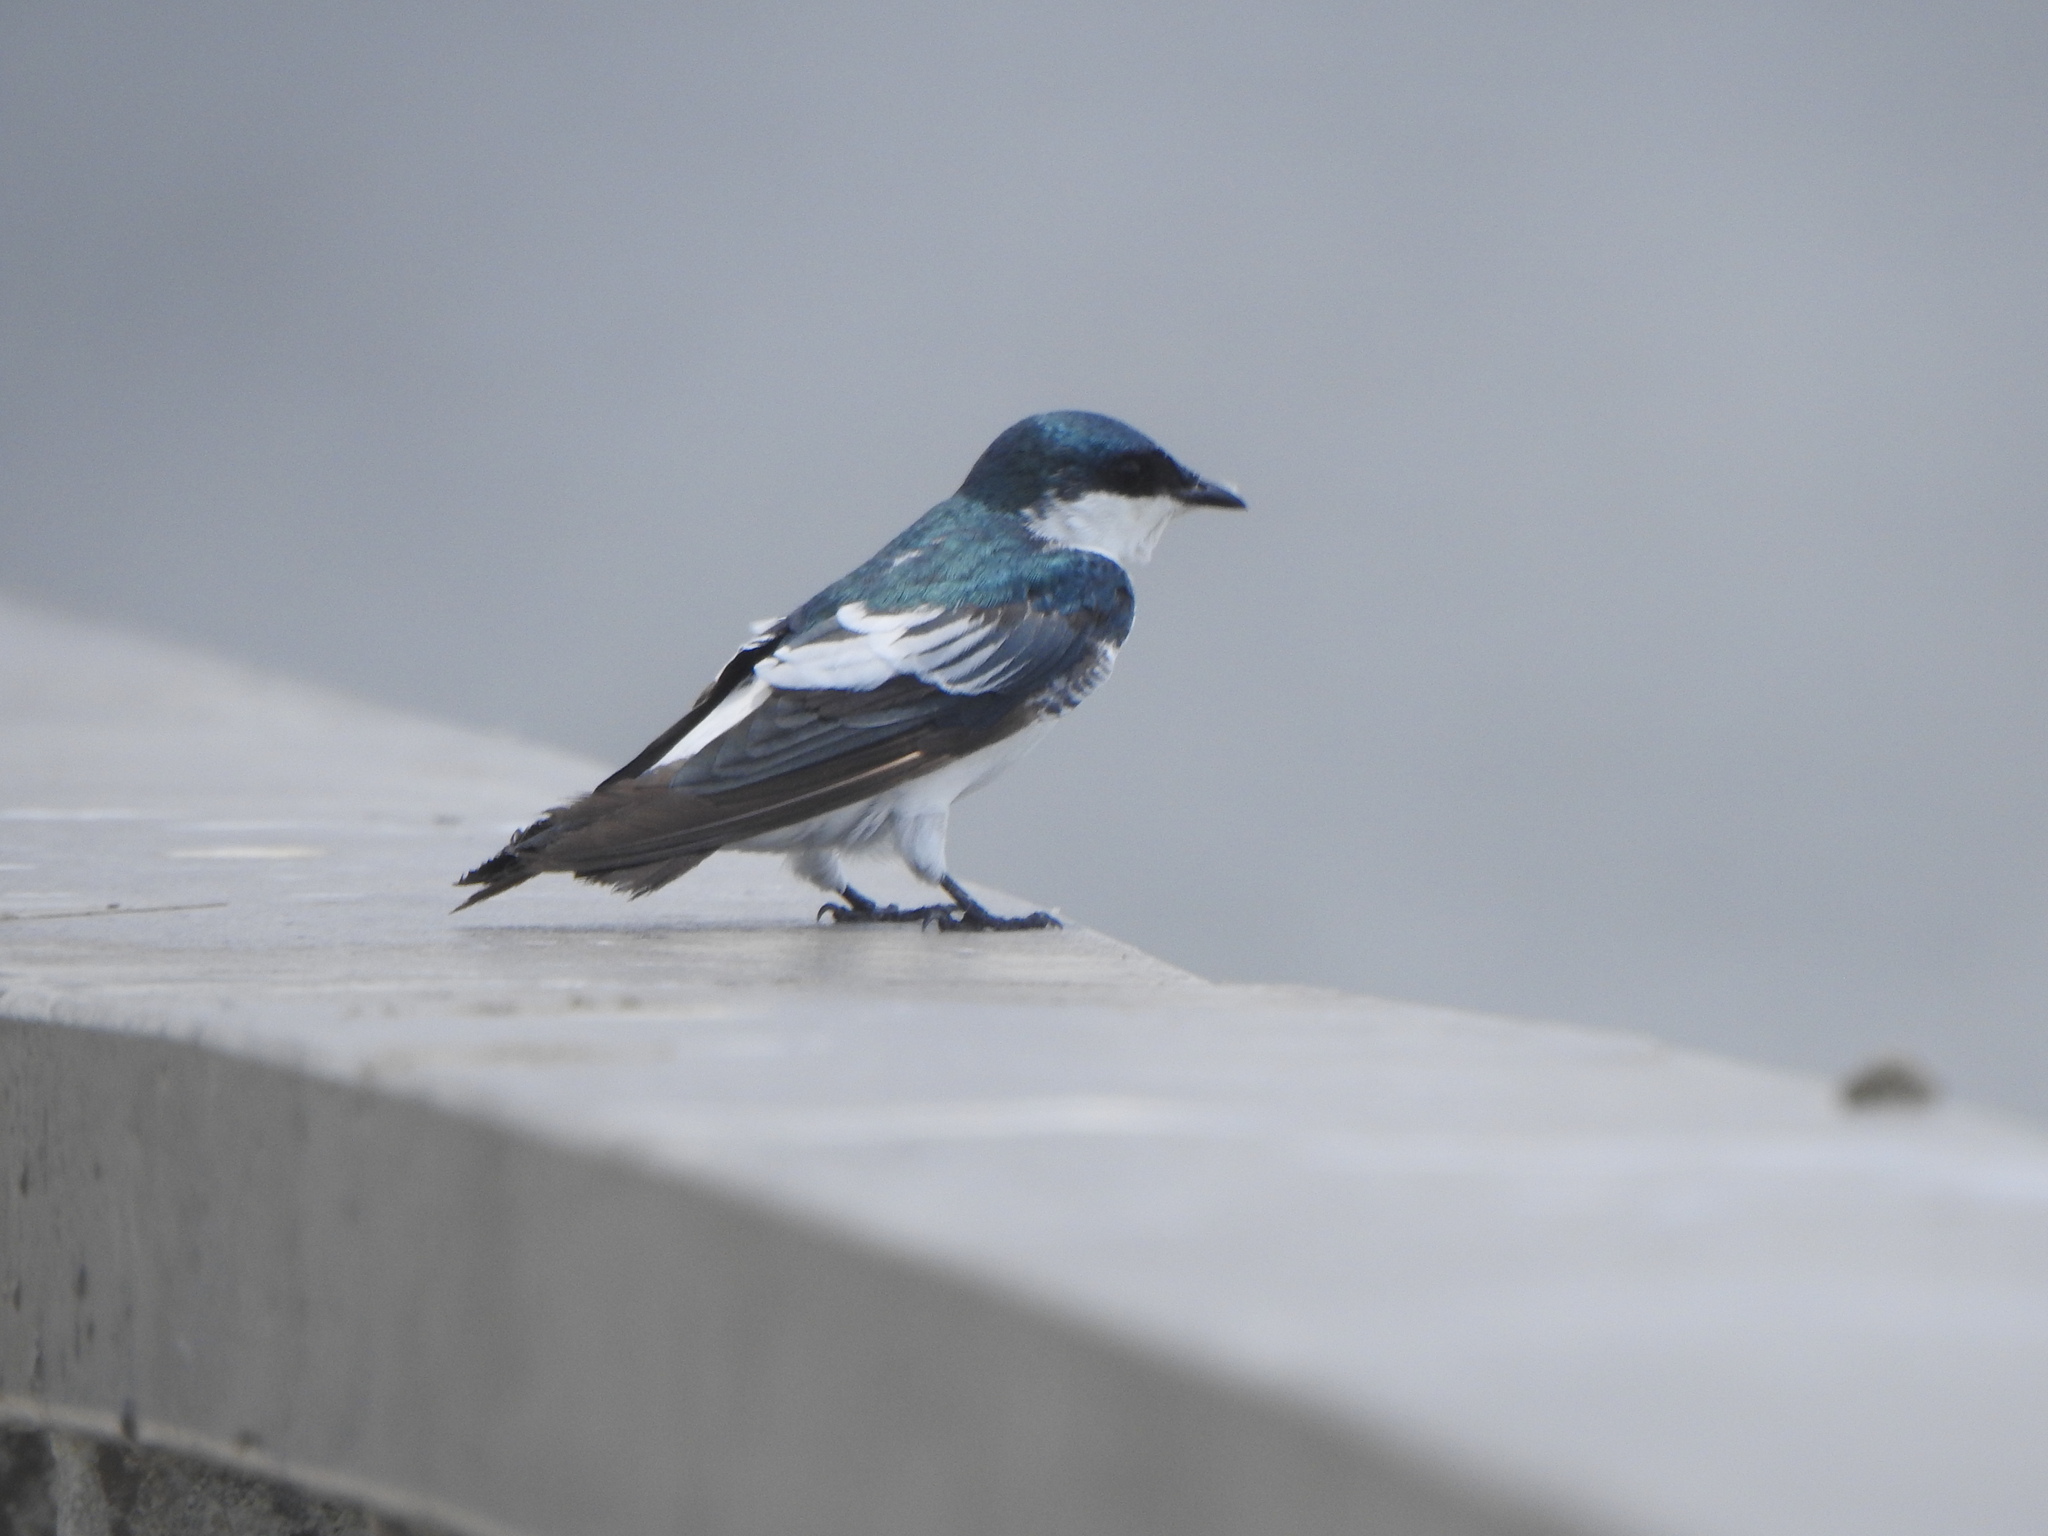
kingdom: Animalia
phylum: Chordata
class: Aves
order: Passeriformes
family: Hirundinidae
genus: Tachycineta
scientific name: Tachycineta albiventer
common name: White-winged swallow
